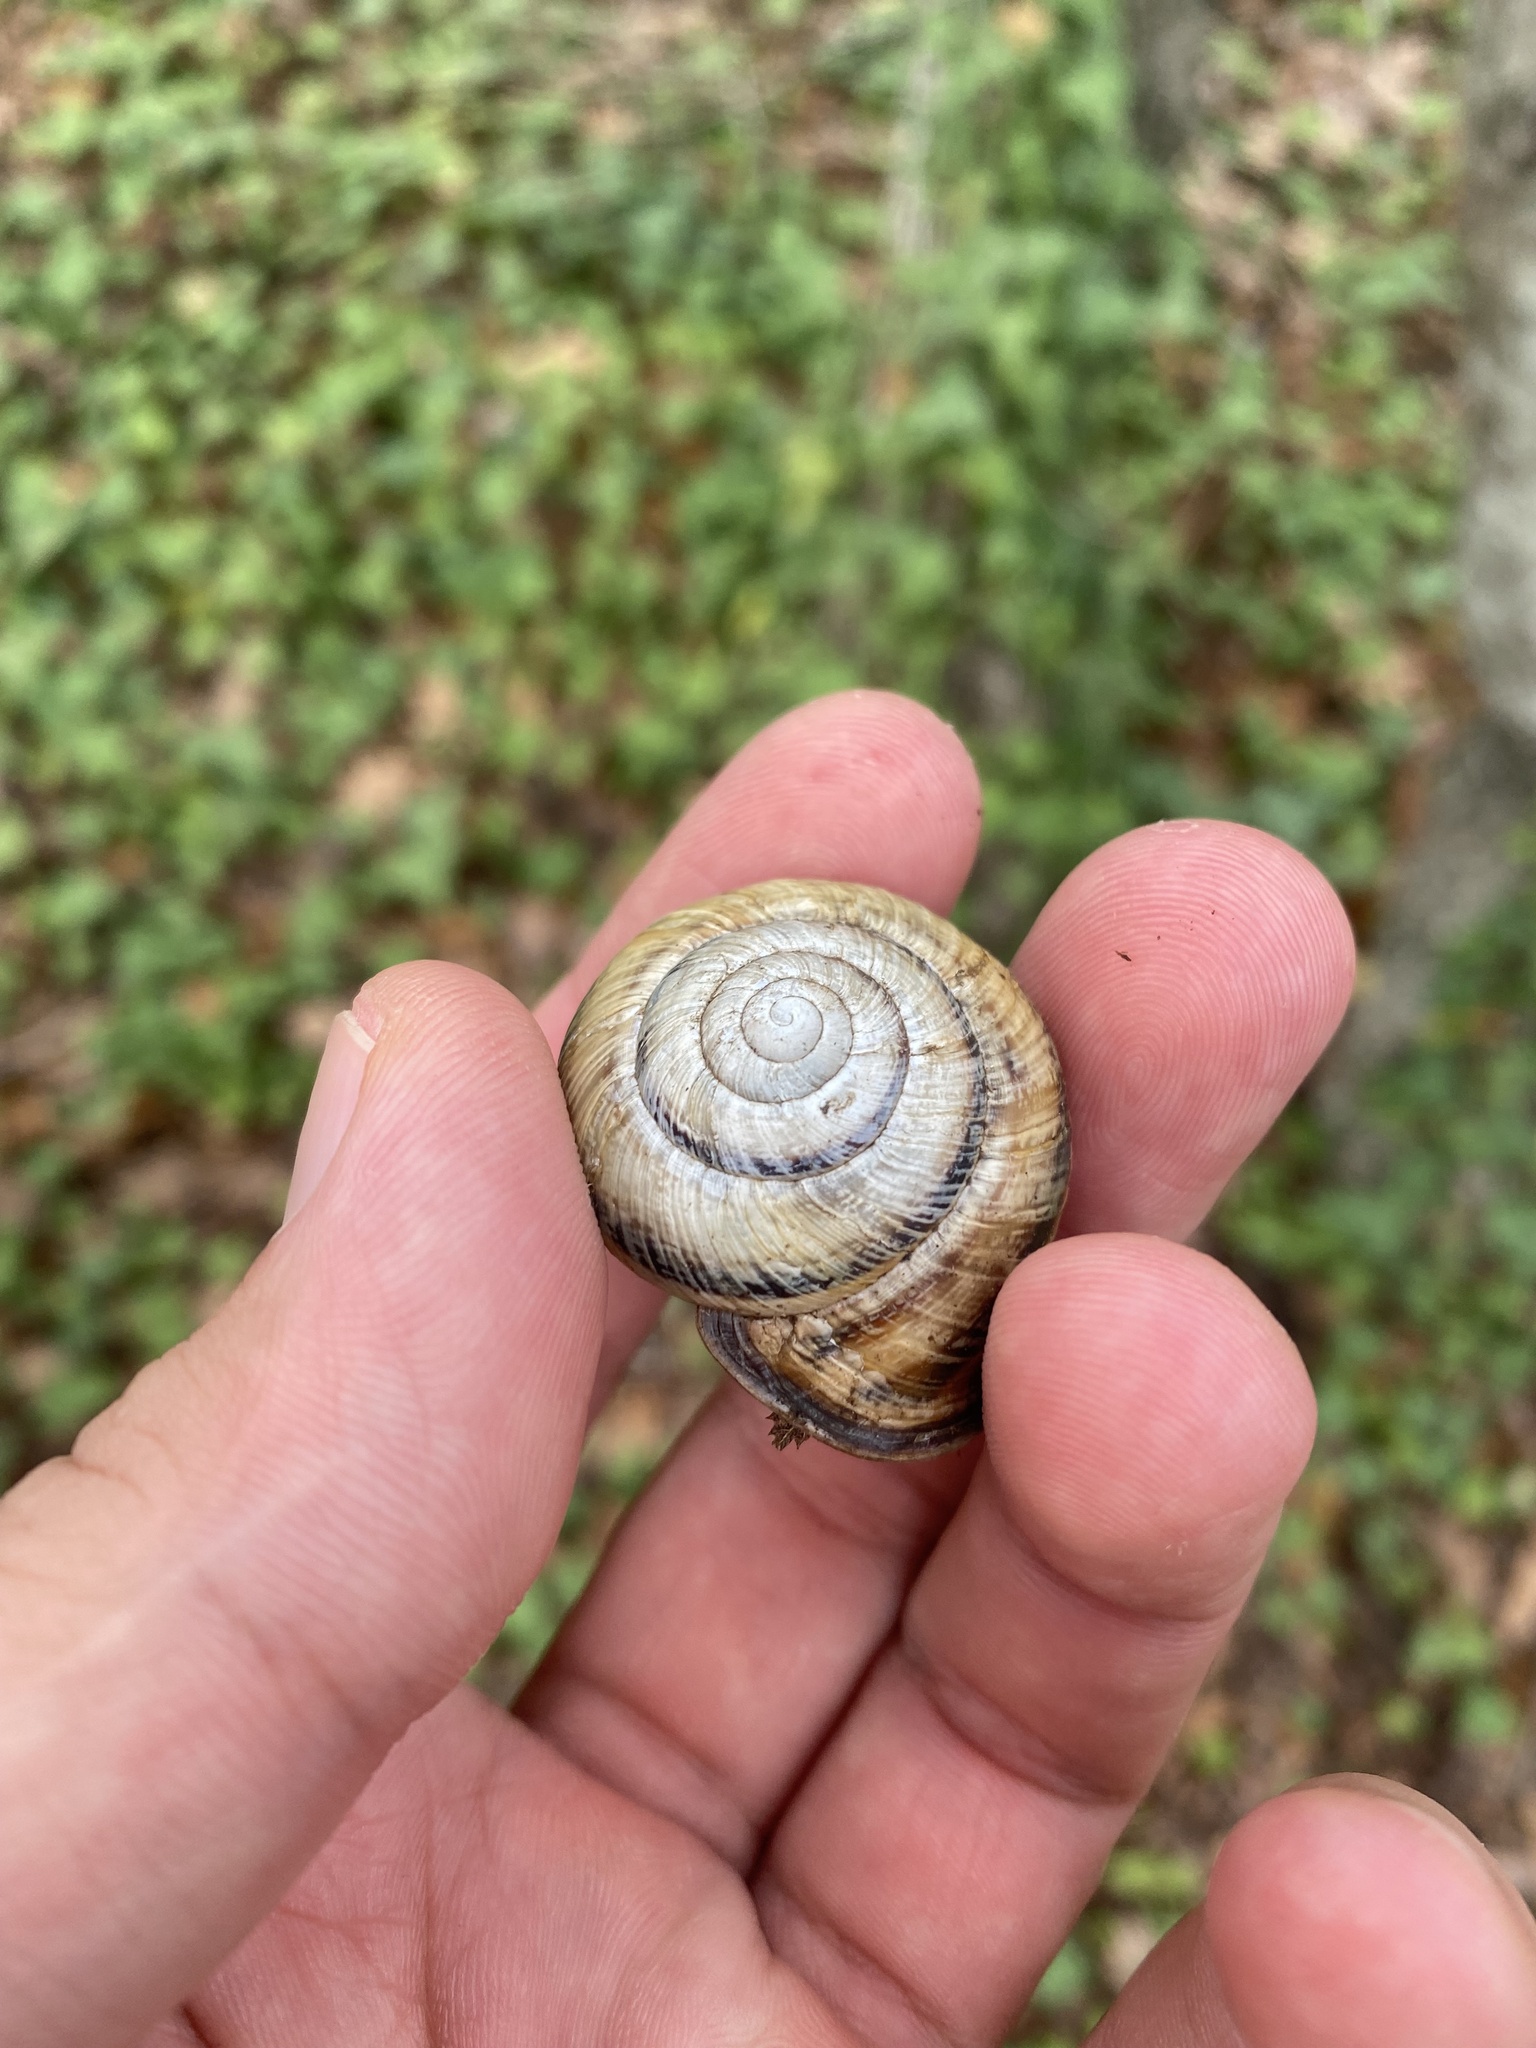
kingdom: Animalia
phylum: Mollusca
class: Gastropoda
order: Stylommatophora
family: Helicidae
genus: Caucasotachea
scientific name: Caucasotachea atrolabiata
